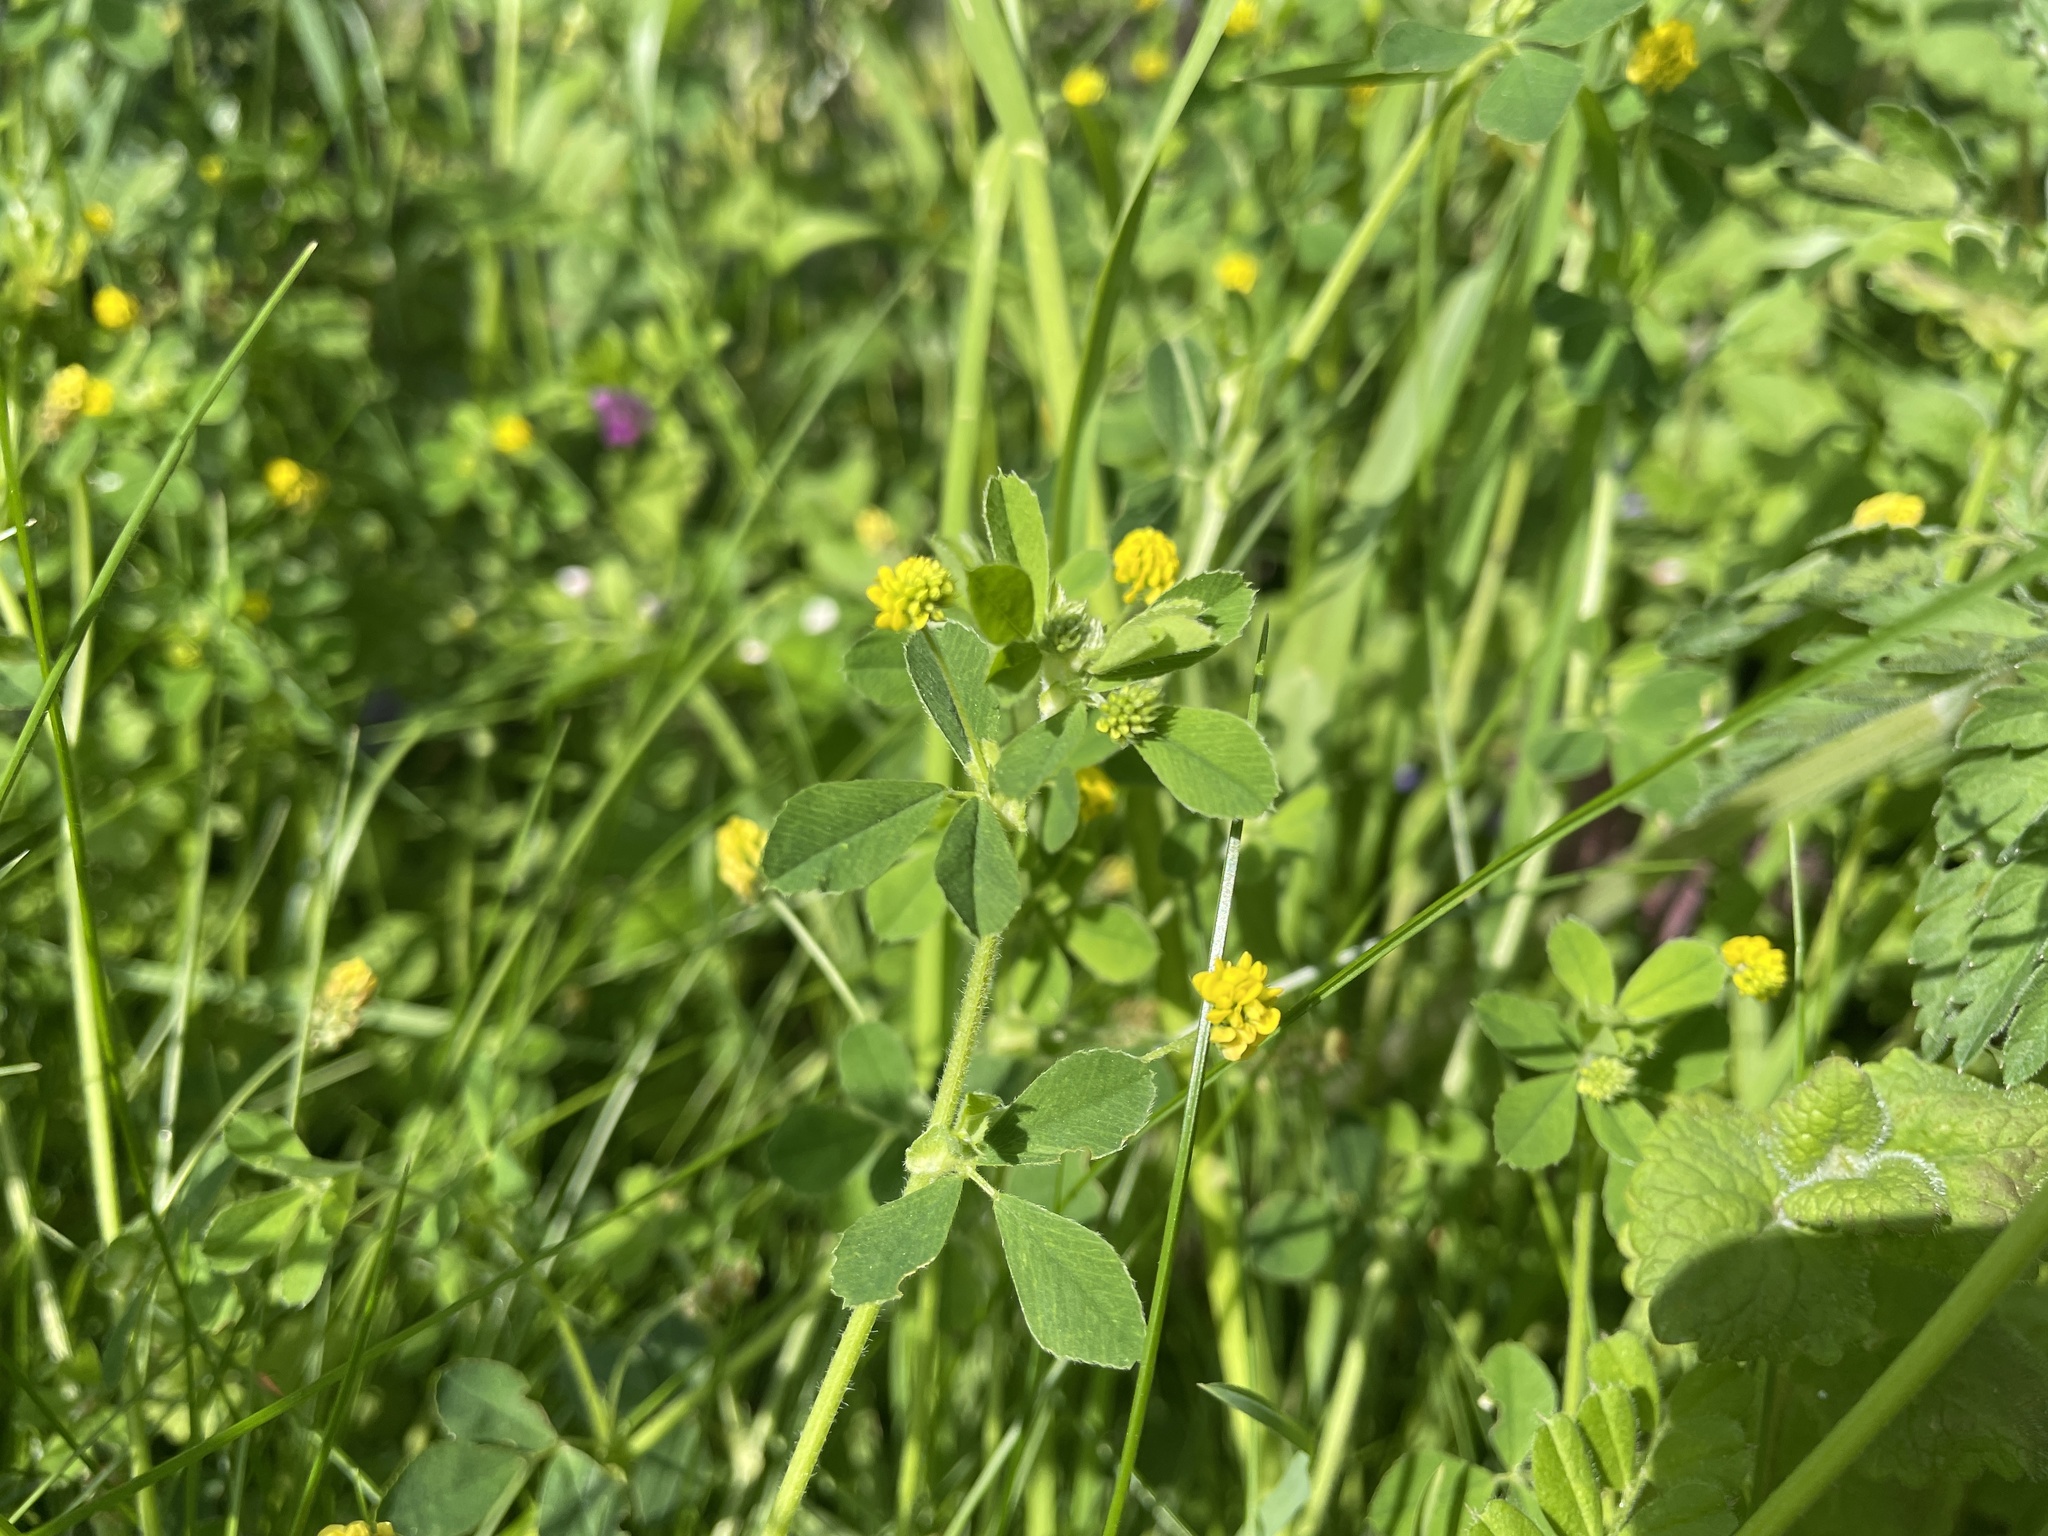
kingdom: Plantae
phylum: Tracheophyta
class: Magnoliopsida
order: Fabales
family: Fabaceae
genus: Medicago
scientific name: Medicago lupulina
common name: Black medick
